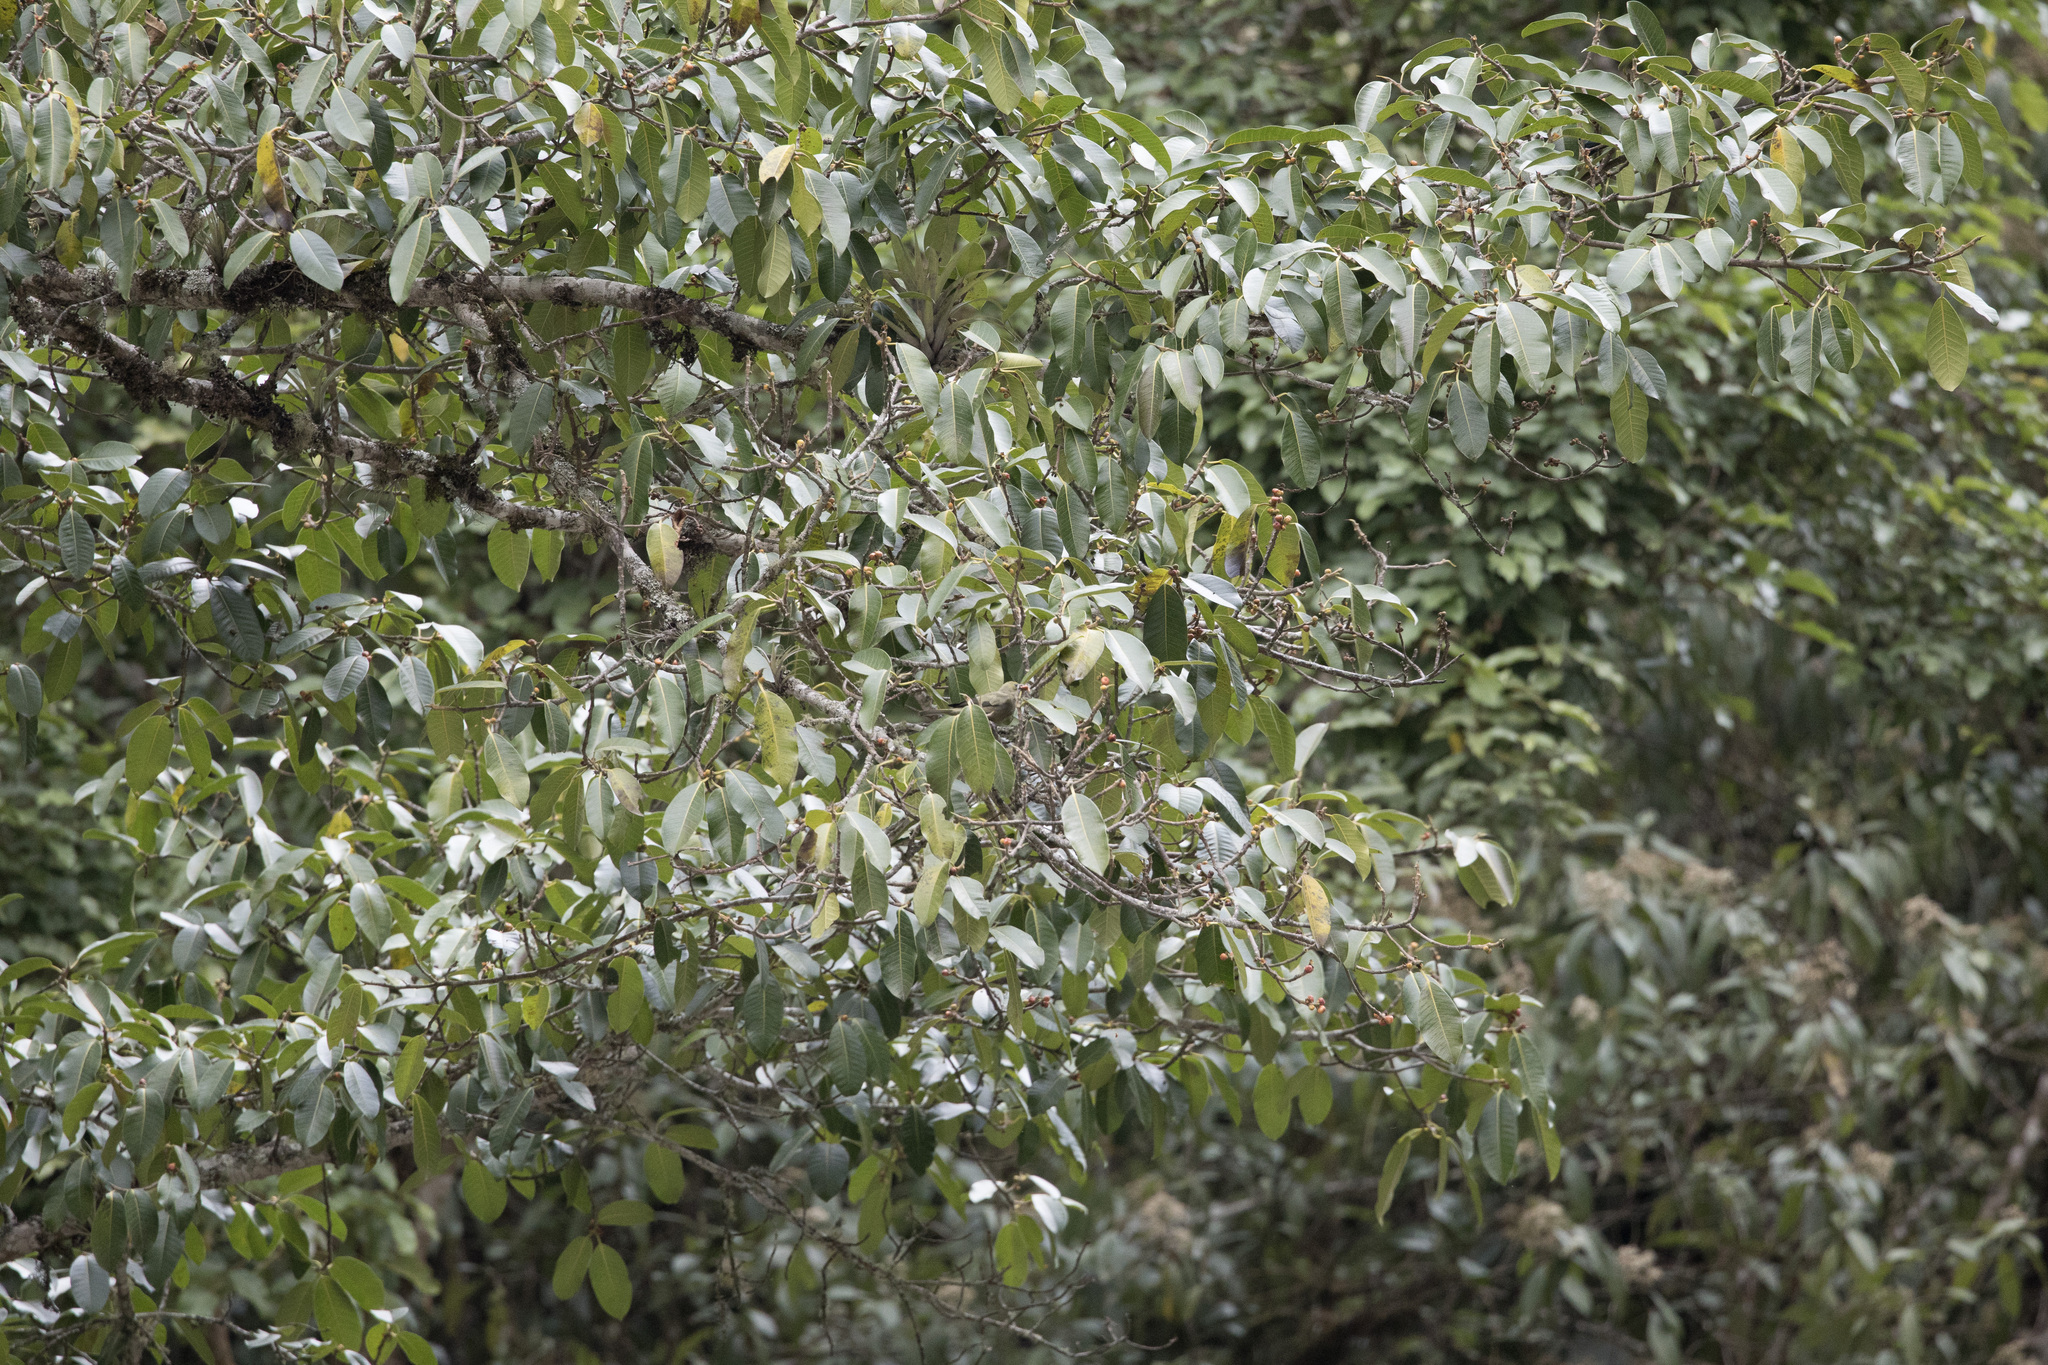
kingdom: Animalia
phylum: Chordata
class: Aves
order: Passeriformes
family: Thraupidae
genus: Thraupis
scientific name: Thraupis palmarum
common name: Palm tanager
